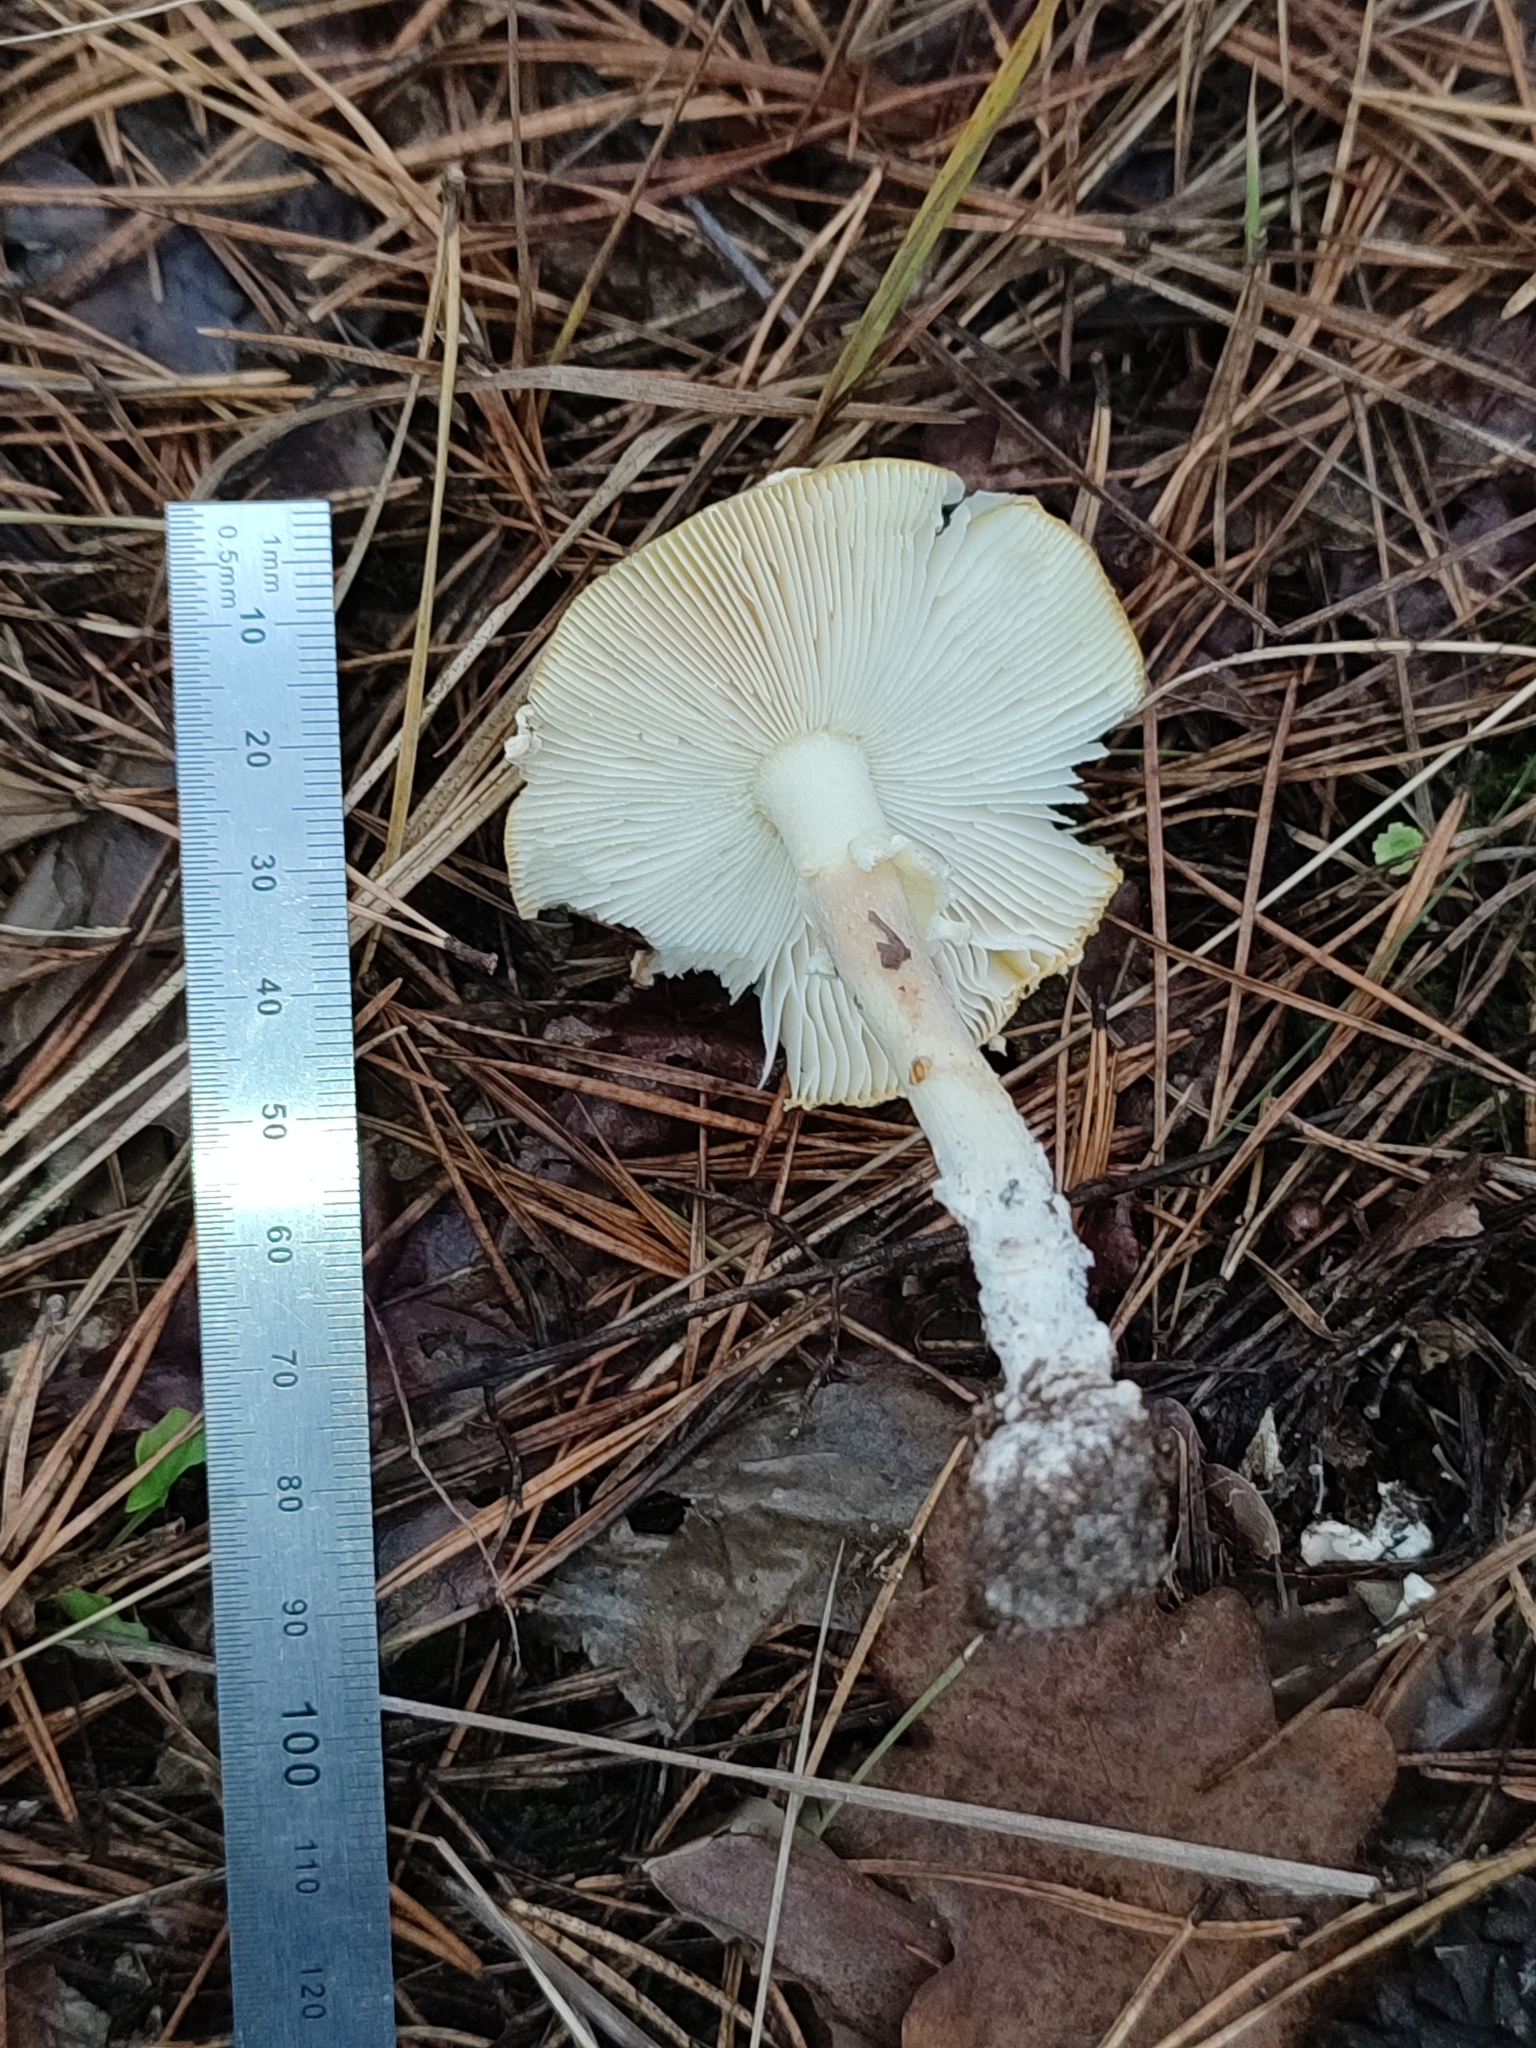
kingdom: Fungi
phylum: Basidiomycota
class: Agaricomycetes
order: Agaricales
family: Amanitaceae
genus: Amanita
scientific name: Amanita muscaria
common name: Fly agaric
